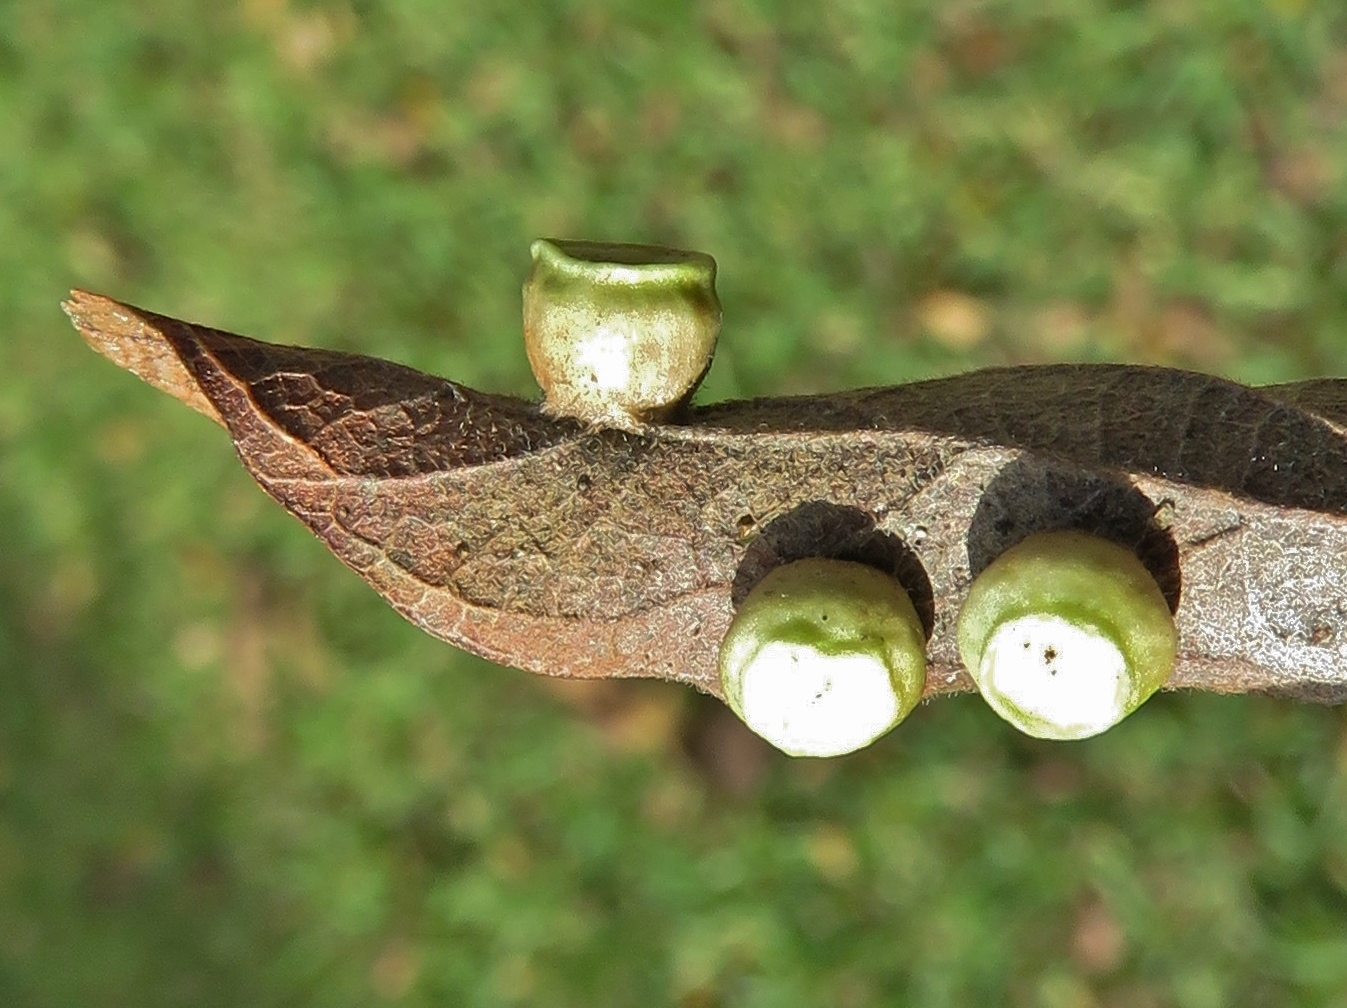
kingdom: Animalia
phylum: Arthropoda
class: Insecta
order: Hemiptera
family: Aphalaridae
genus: Pachypsylla
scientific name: Pachypsylla celtidismamma
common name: Hackberry nipplegall psyllid
